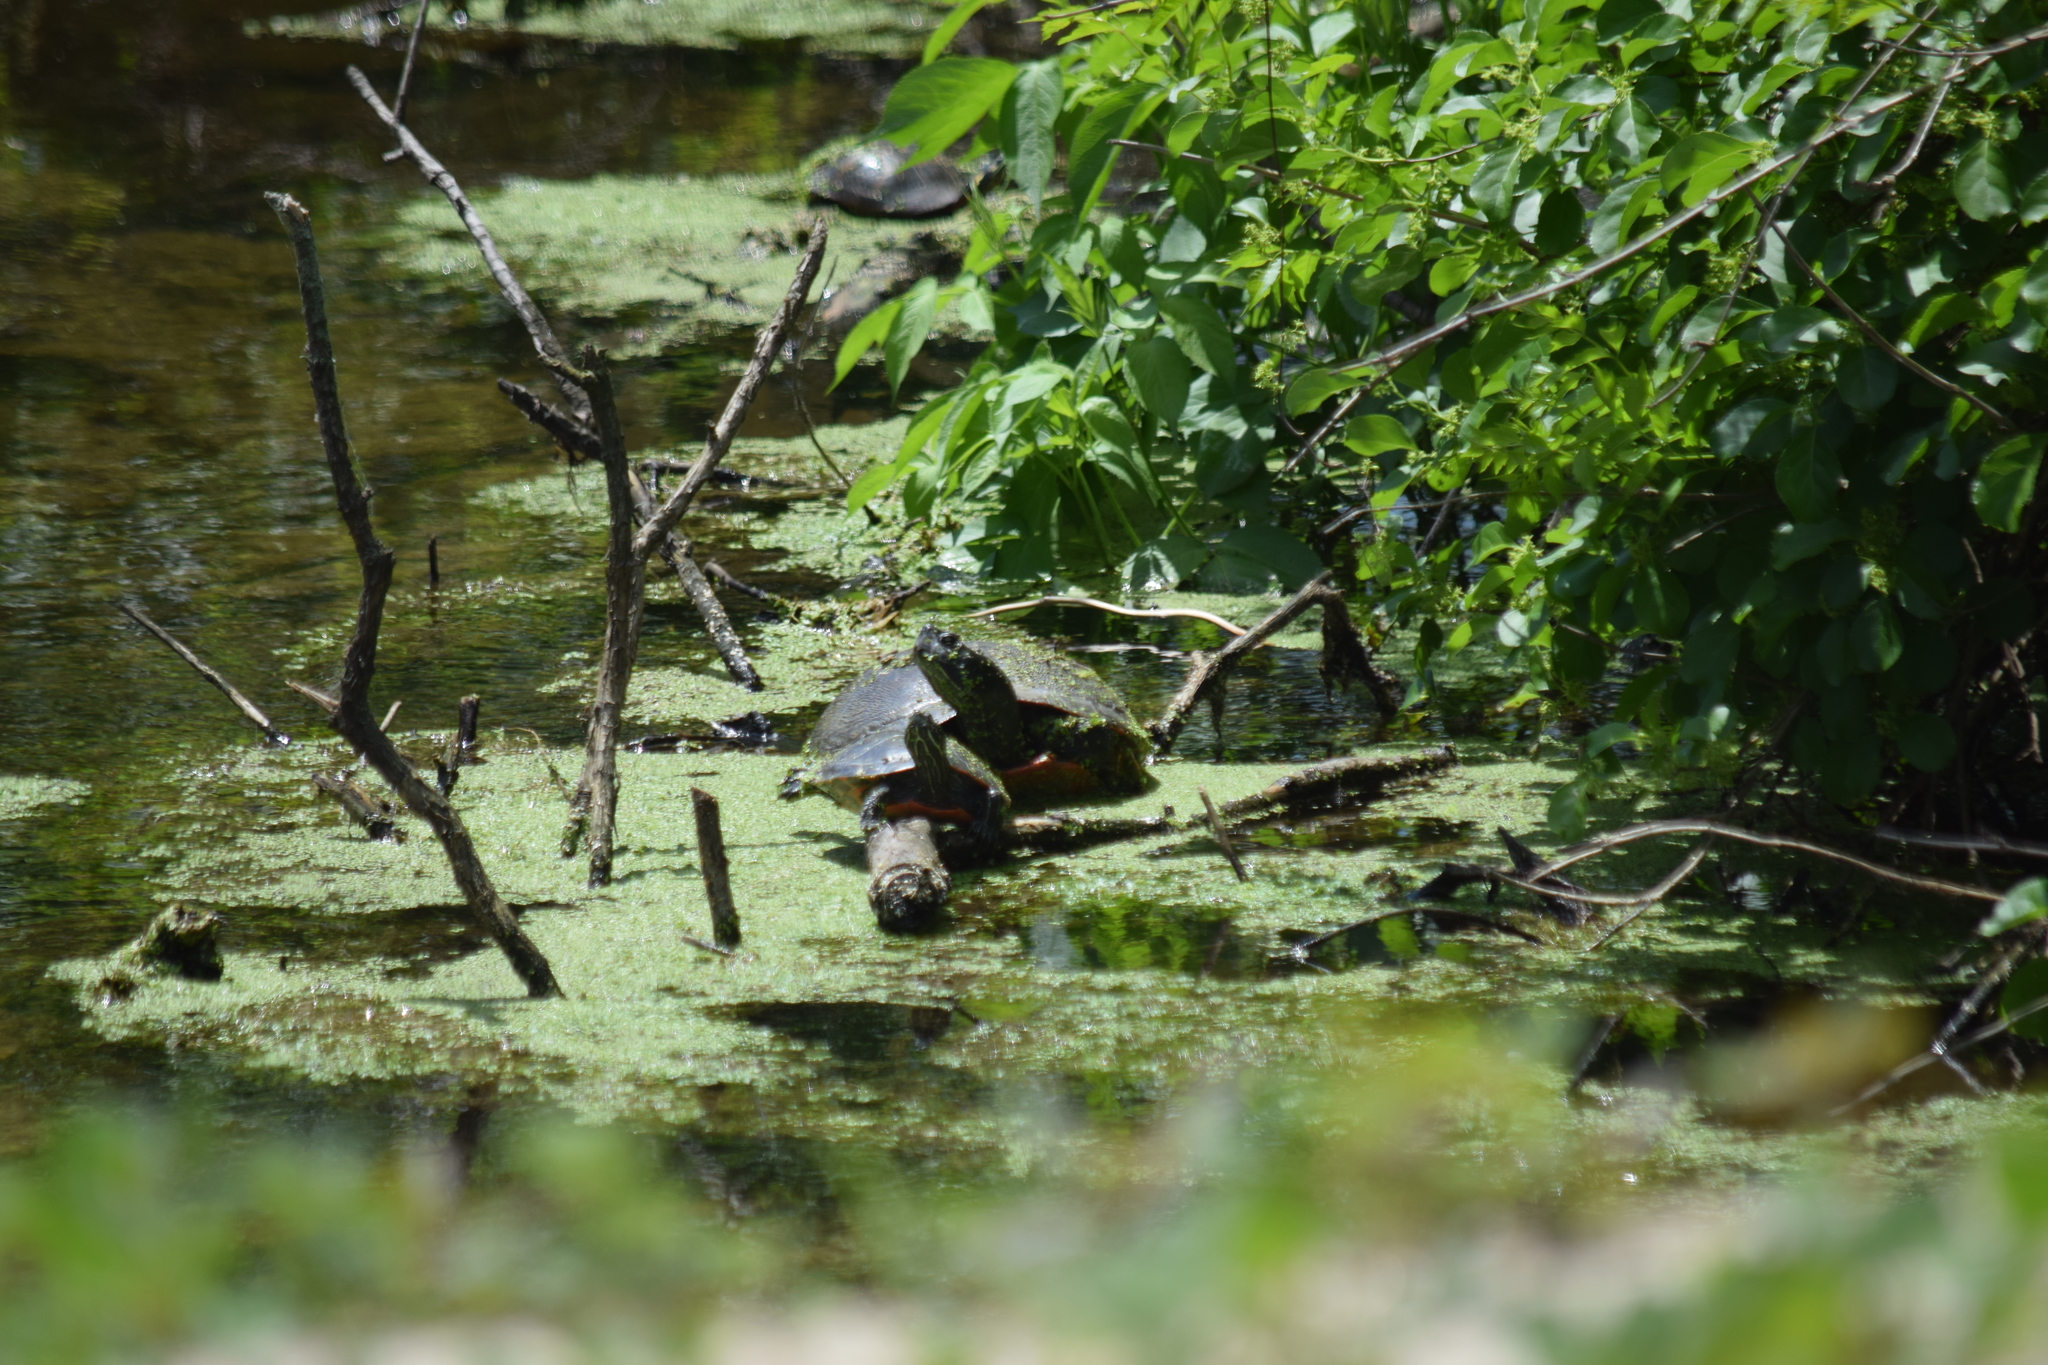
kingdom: Animalia
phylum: Chordata
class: Testudines
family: Emydidae
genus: Pseudemys
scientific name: Pseudemys rubriventris
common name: American red-bellied turtle
